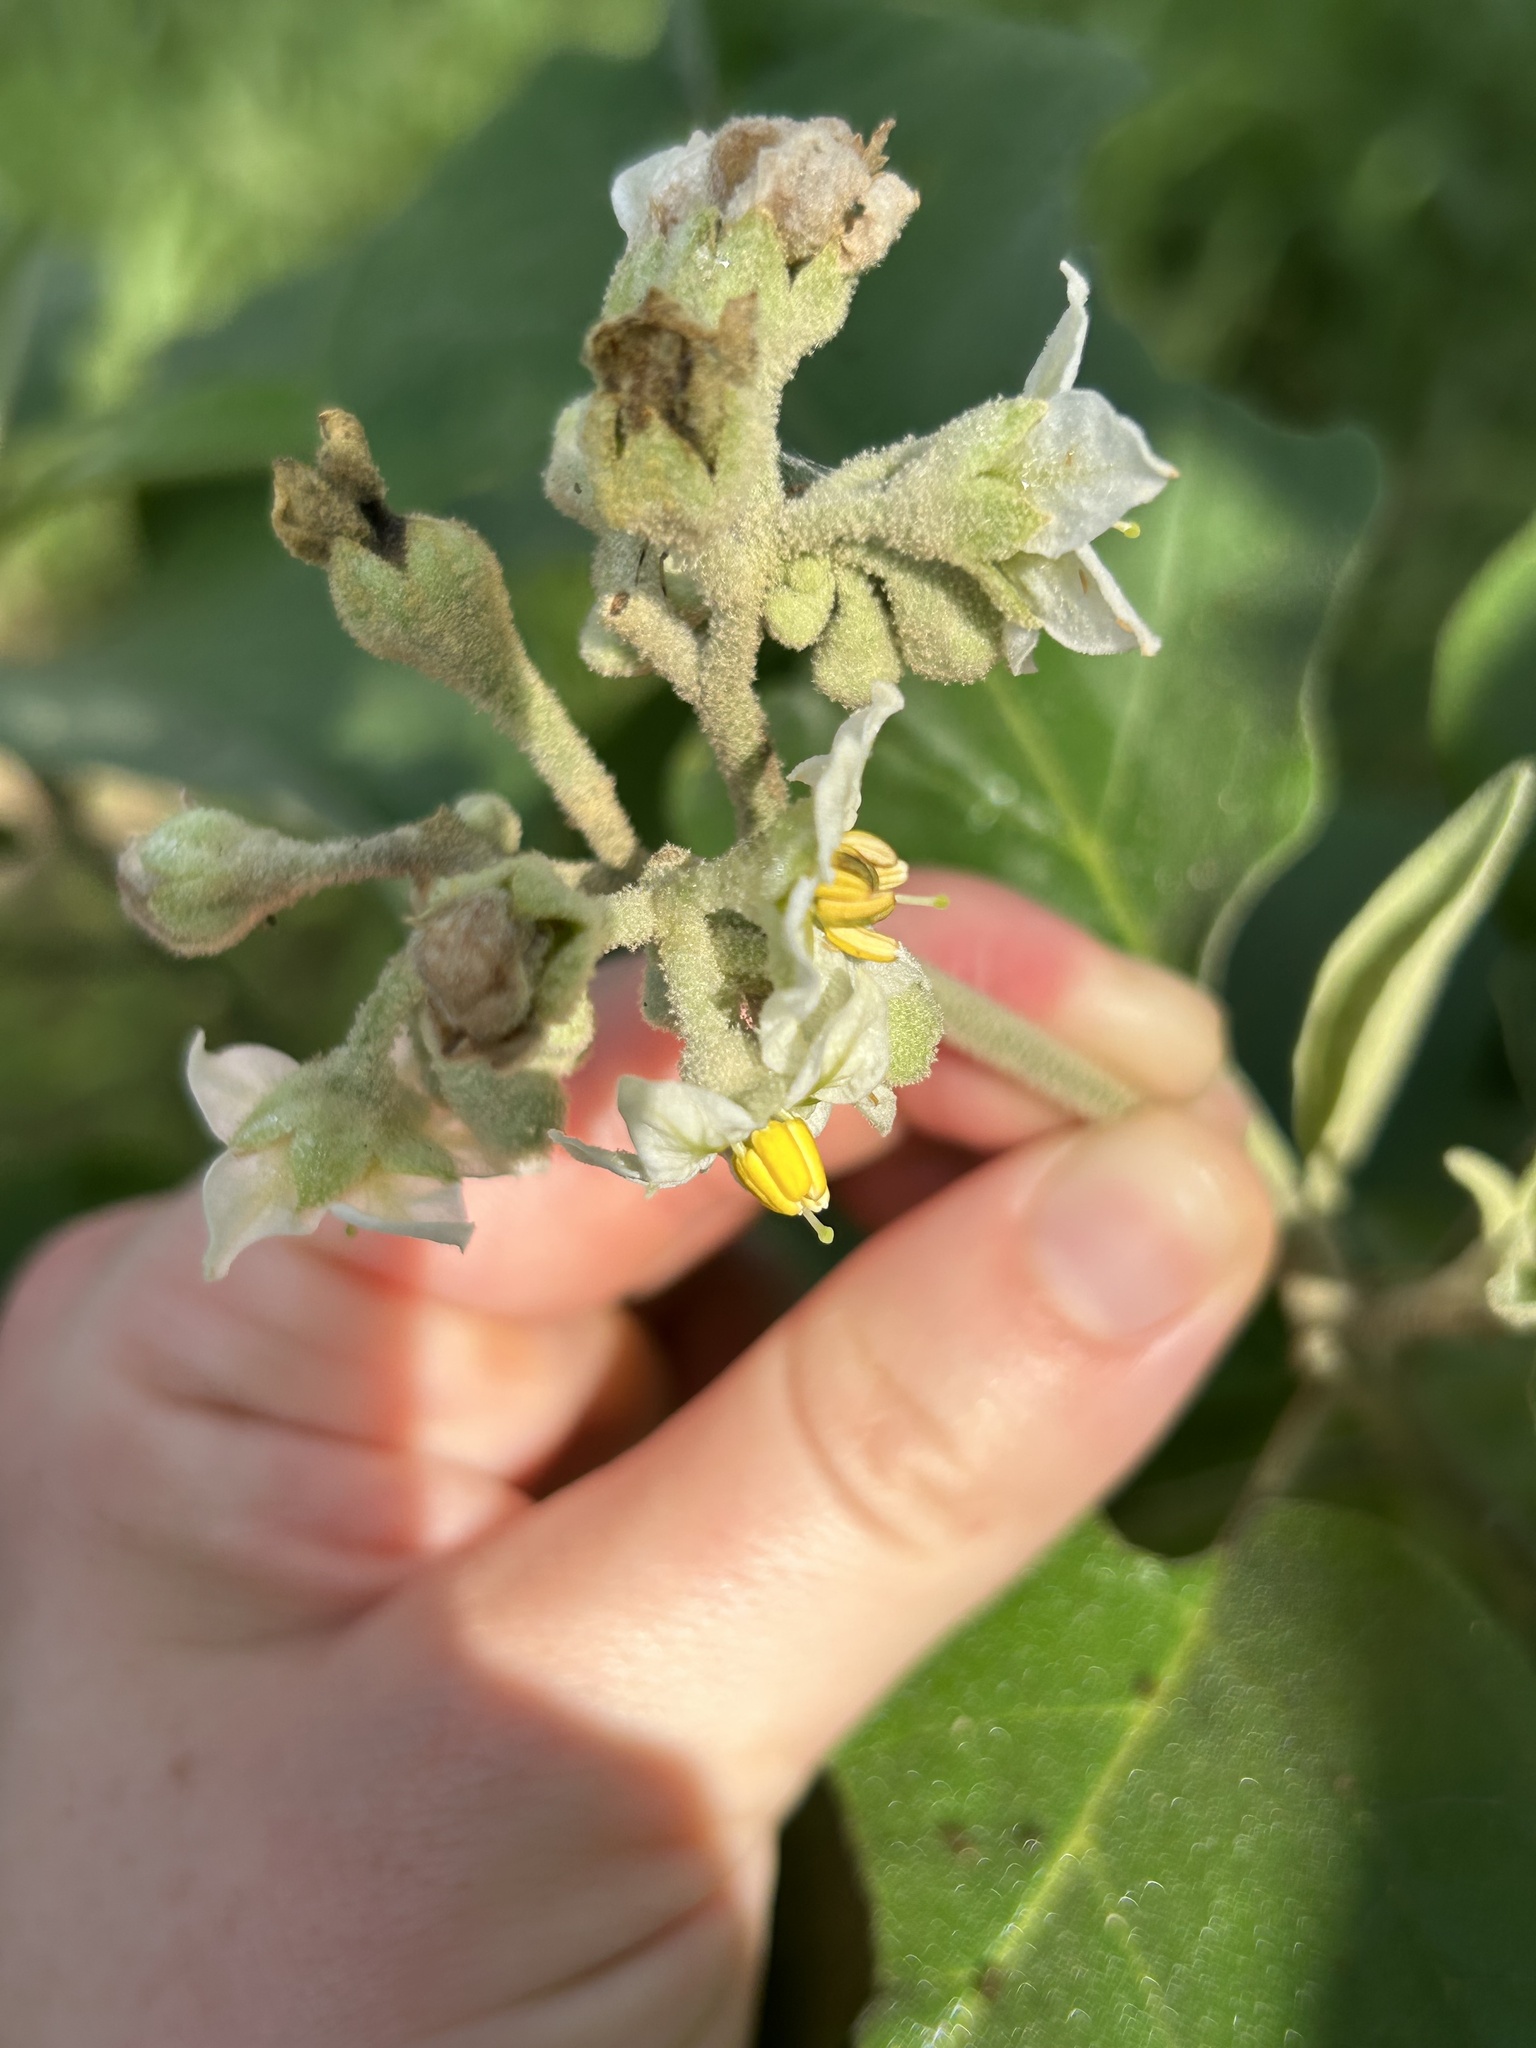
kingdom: Plantae
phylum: Tracheophyta
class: Magnoliopsida
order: Solanales
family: Solanaceae
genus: Solanum
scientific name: Solanum erianthum
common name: Tobacco-tree
